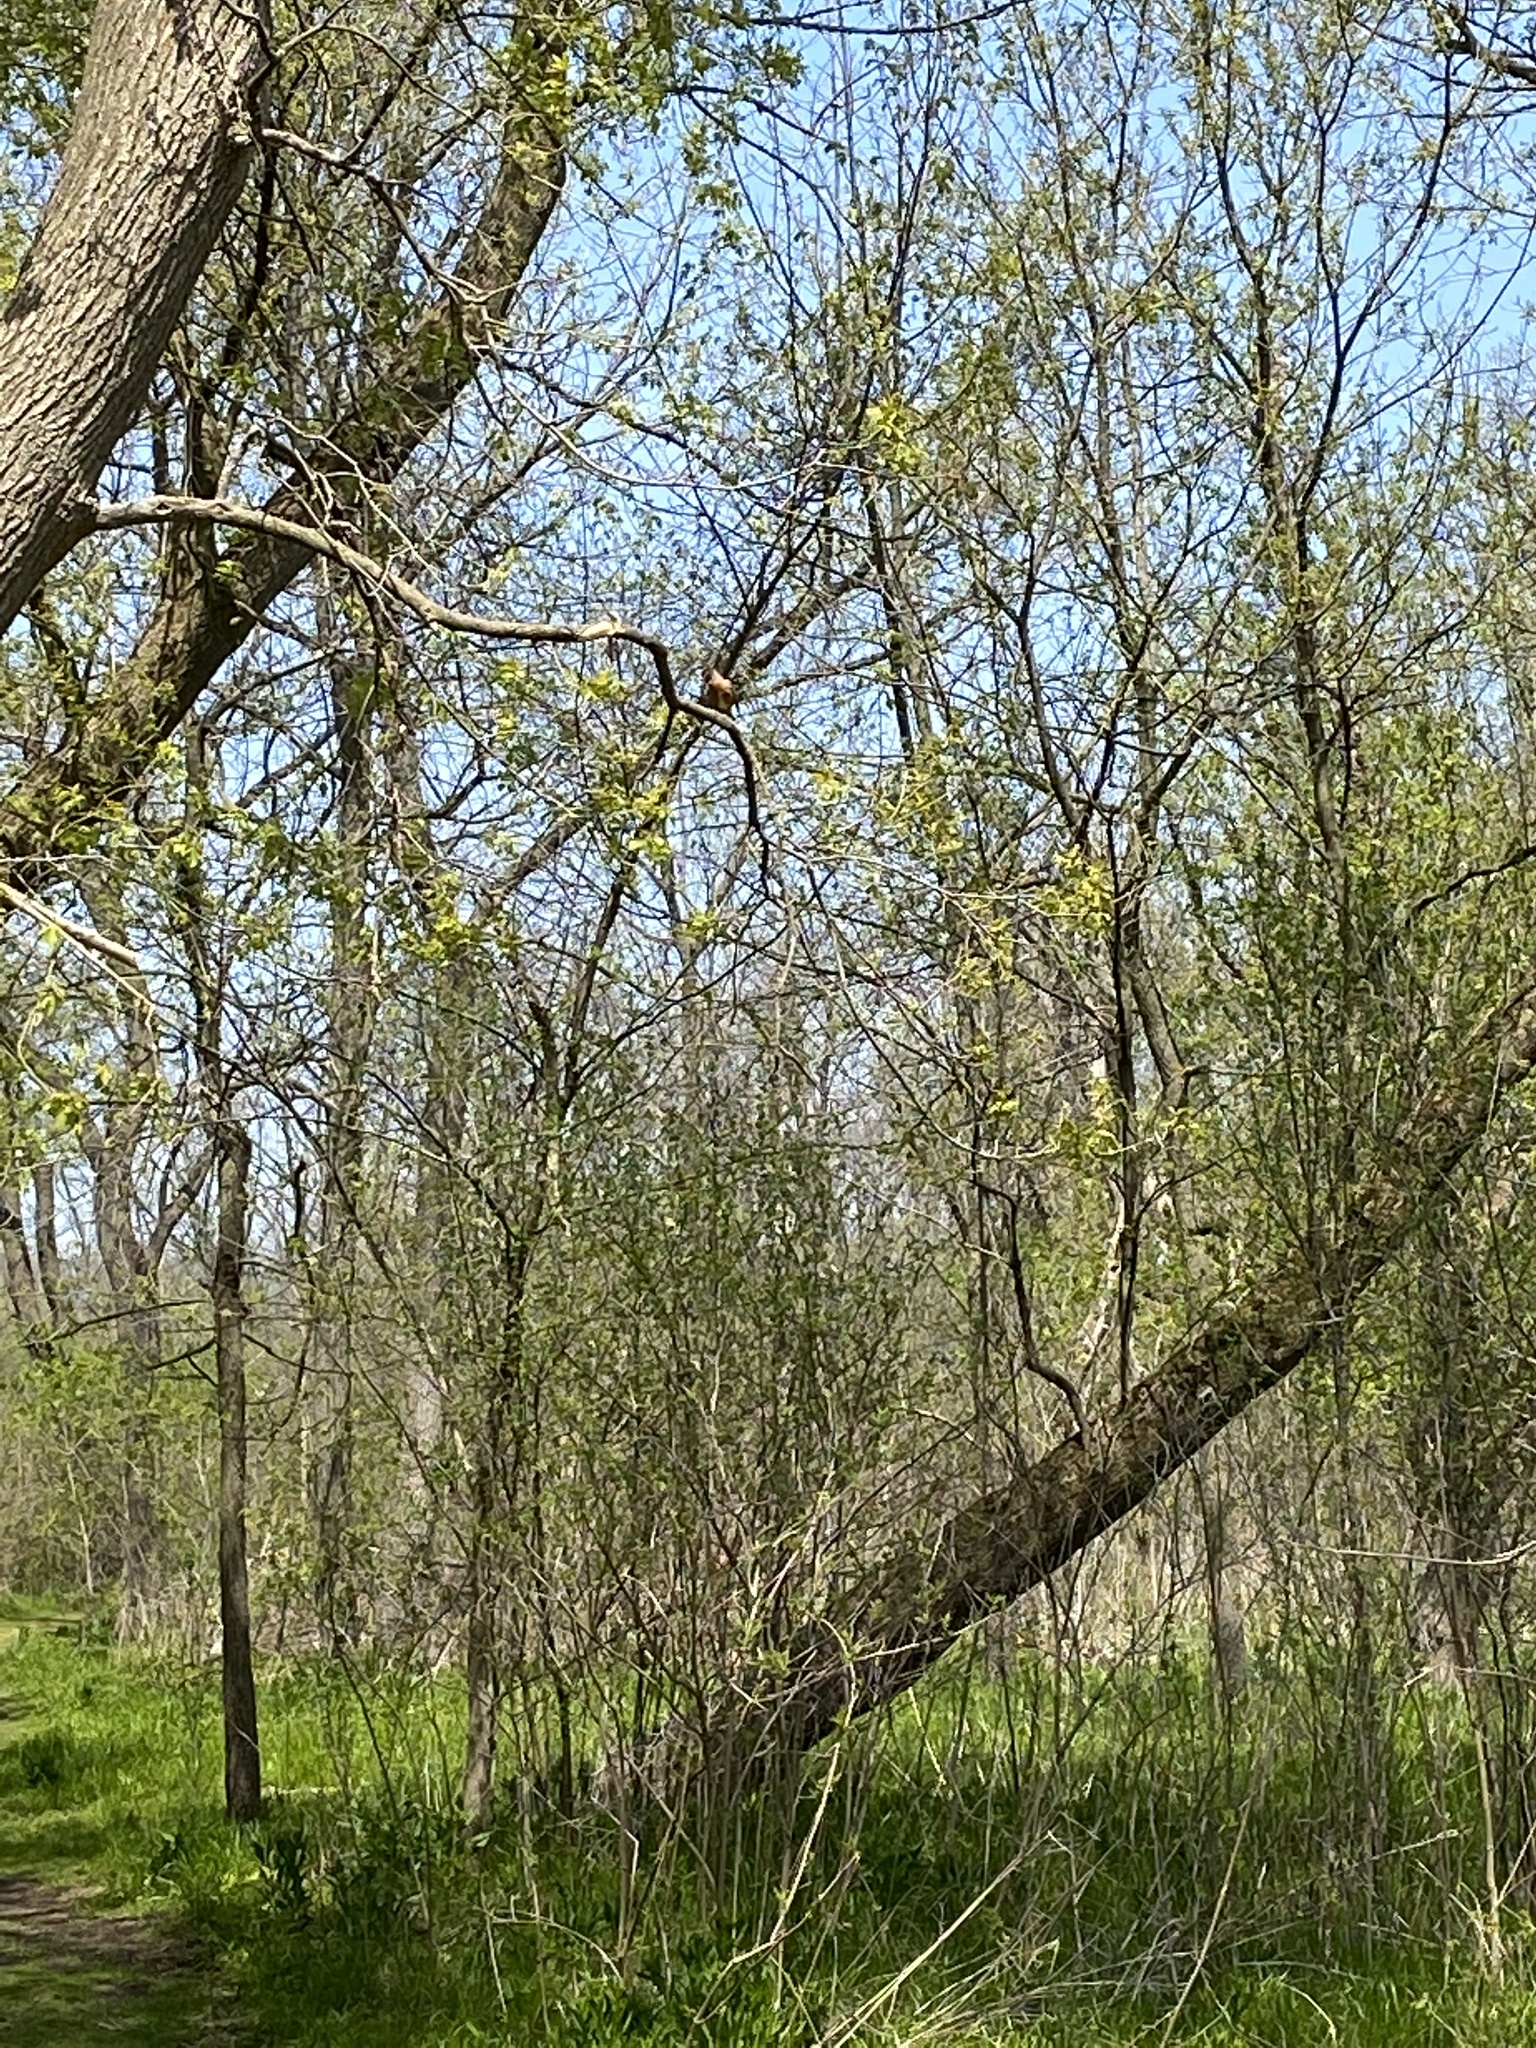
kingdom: Animalia
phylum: Chordata
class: Aves
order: Passeriformes
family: Turdidae
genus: Turdus
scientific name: Turdus migratorius
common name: American robin
